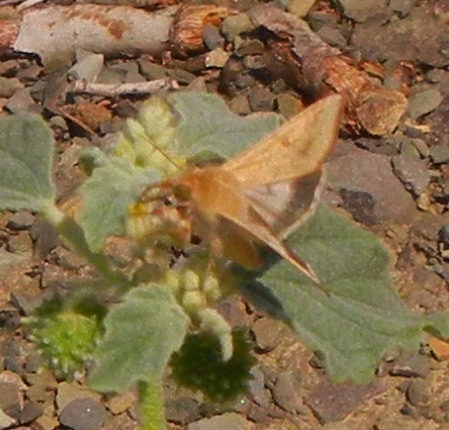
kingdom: Animalia
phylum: Arthropoda
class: Insecta
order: Lepidoptera
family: Noctuidae
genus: Helicoverpa
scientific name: Helicoverpa armigera
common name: Cotton bollworm
